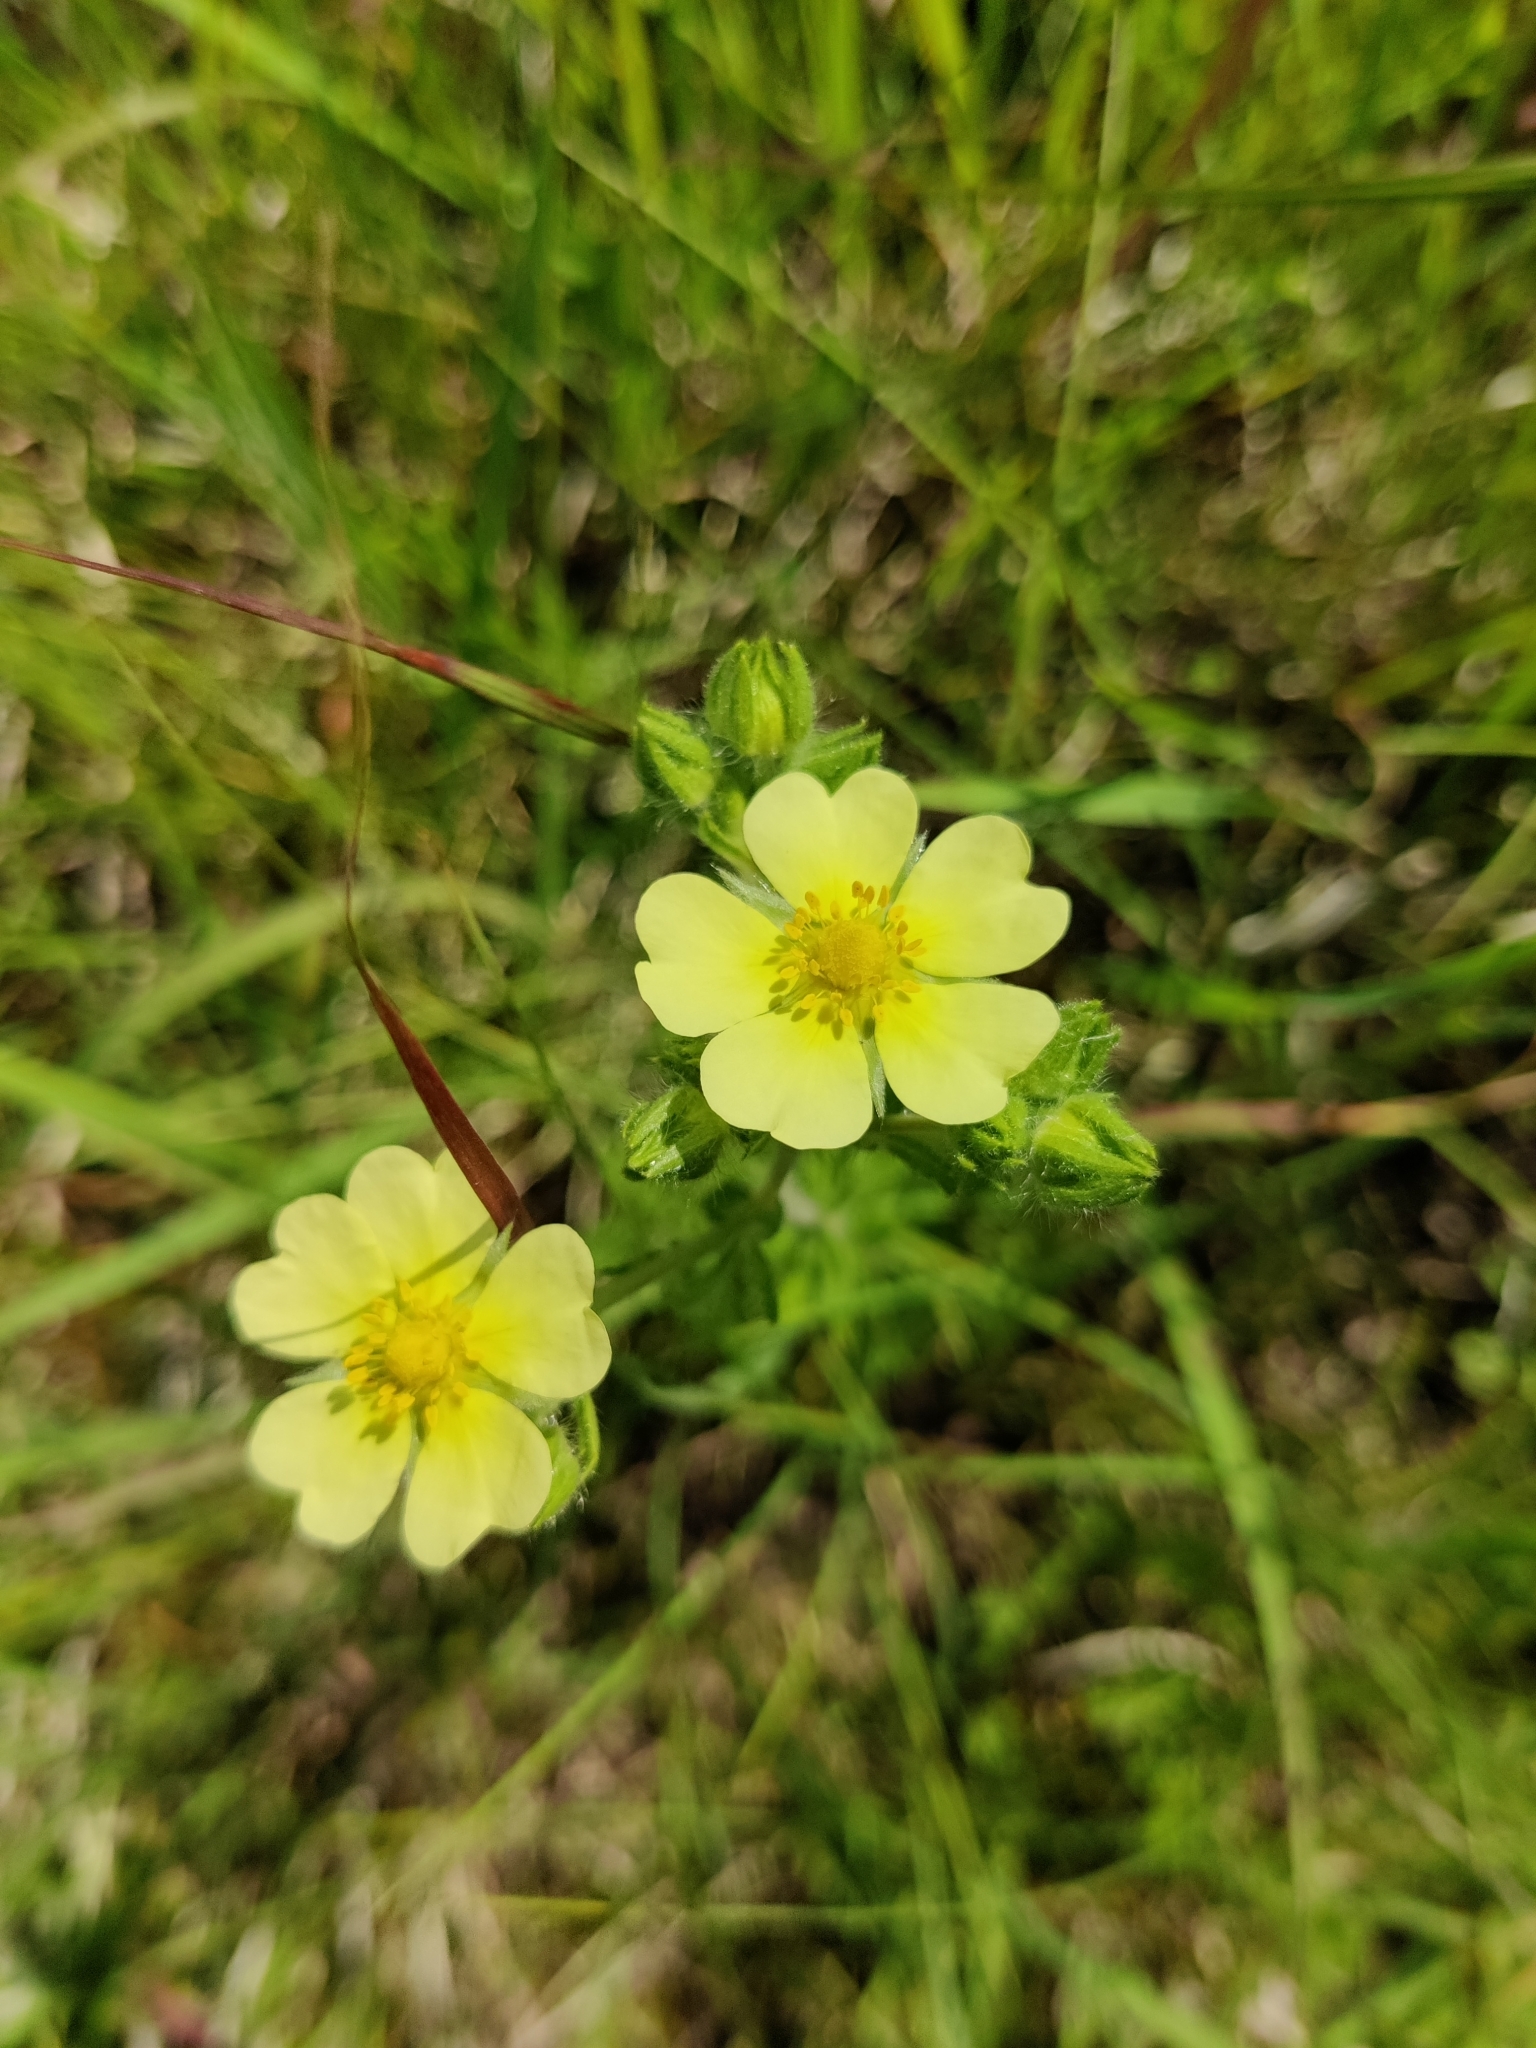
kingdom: Plantae
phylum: Tracheophyta
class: Magnoliopsida
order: Rosales
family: Rosaceae
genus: Potentilla
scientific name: Potentilla recta
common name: Sulphur cinquefoil
